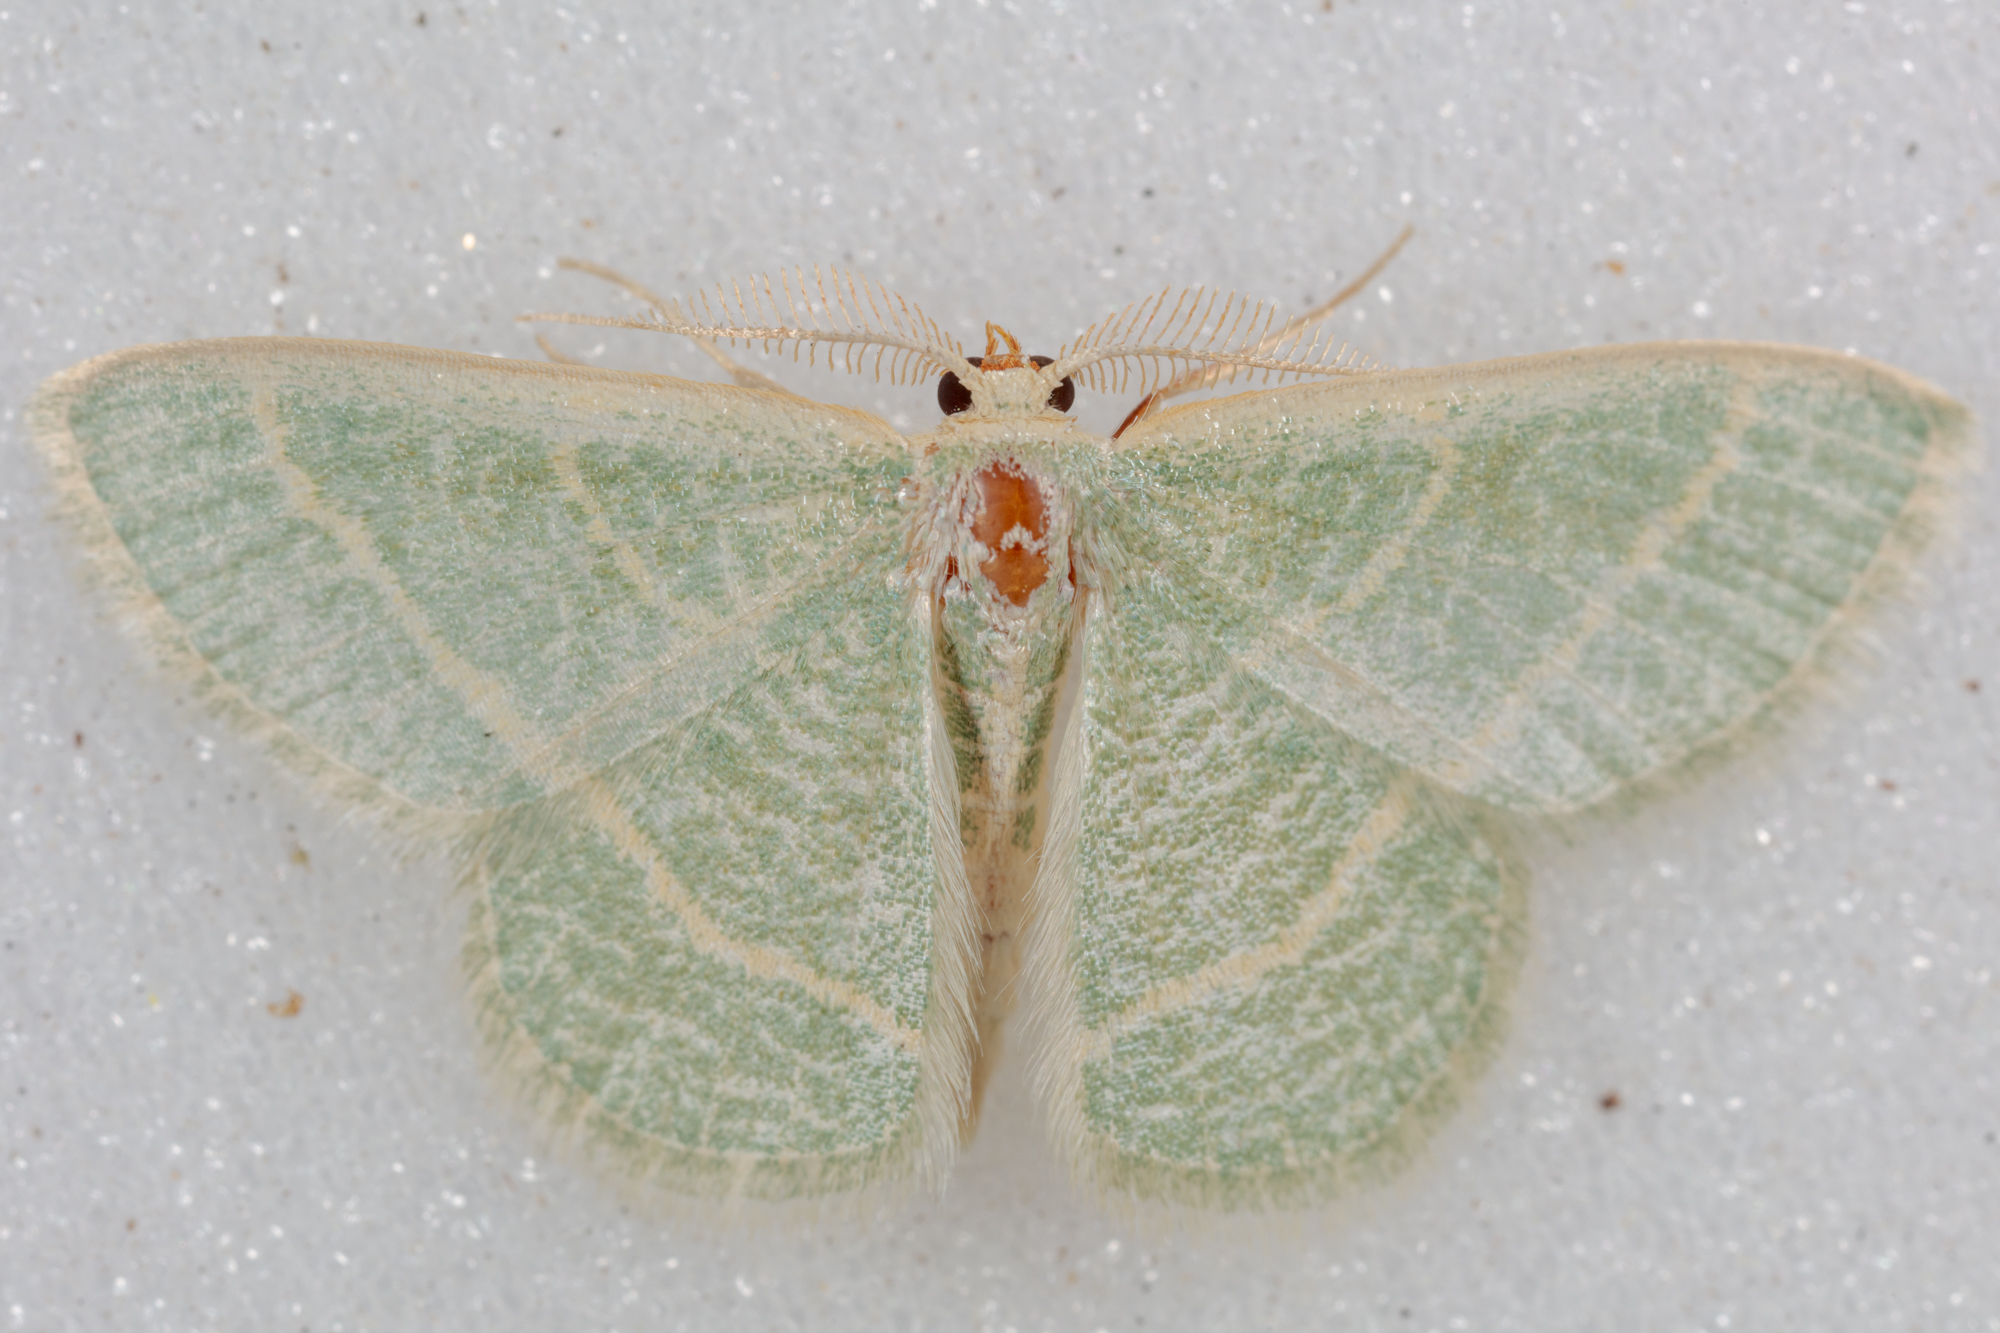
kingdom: Animalia
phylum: Arthropoda
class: Insecta
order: Lepidoptera
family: Geometridae
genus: Chlorochlamys
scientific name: Chlorochlamys chloroleucaria
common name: Blackberry looper
